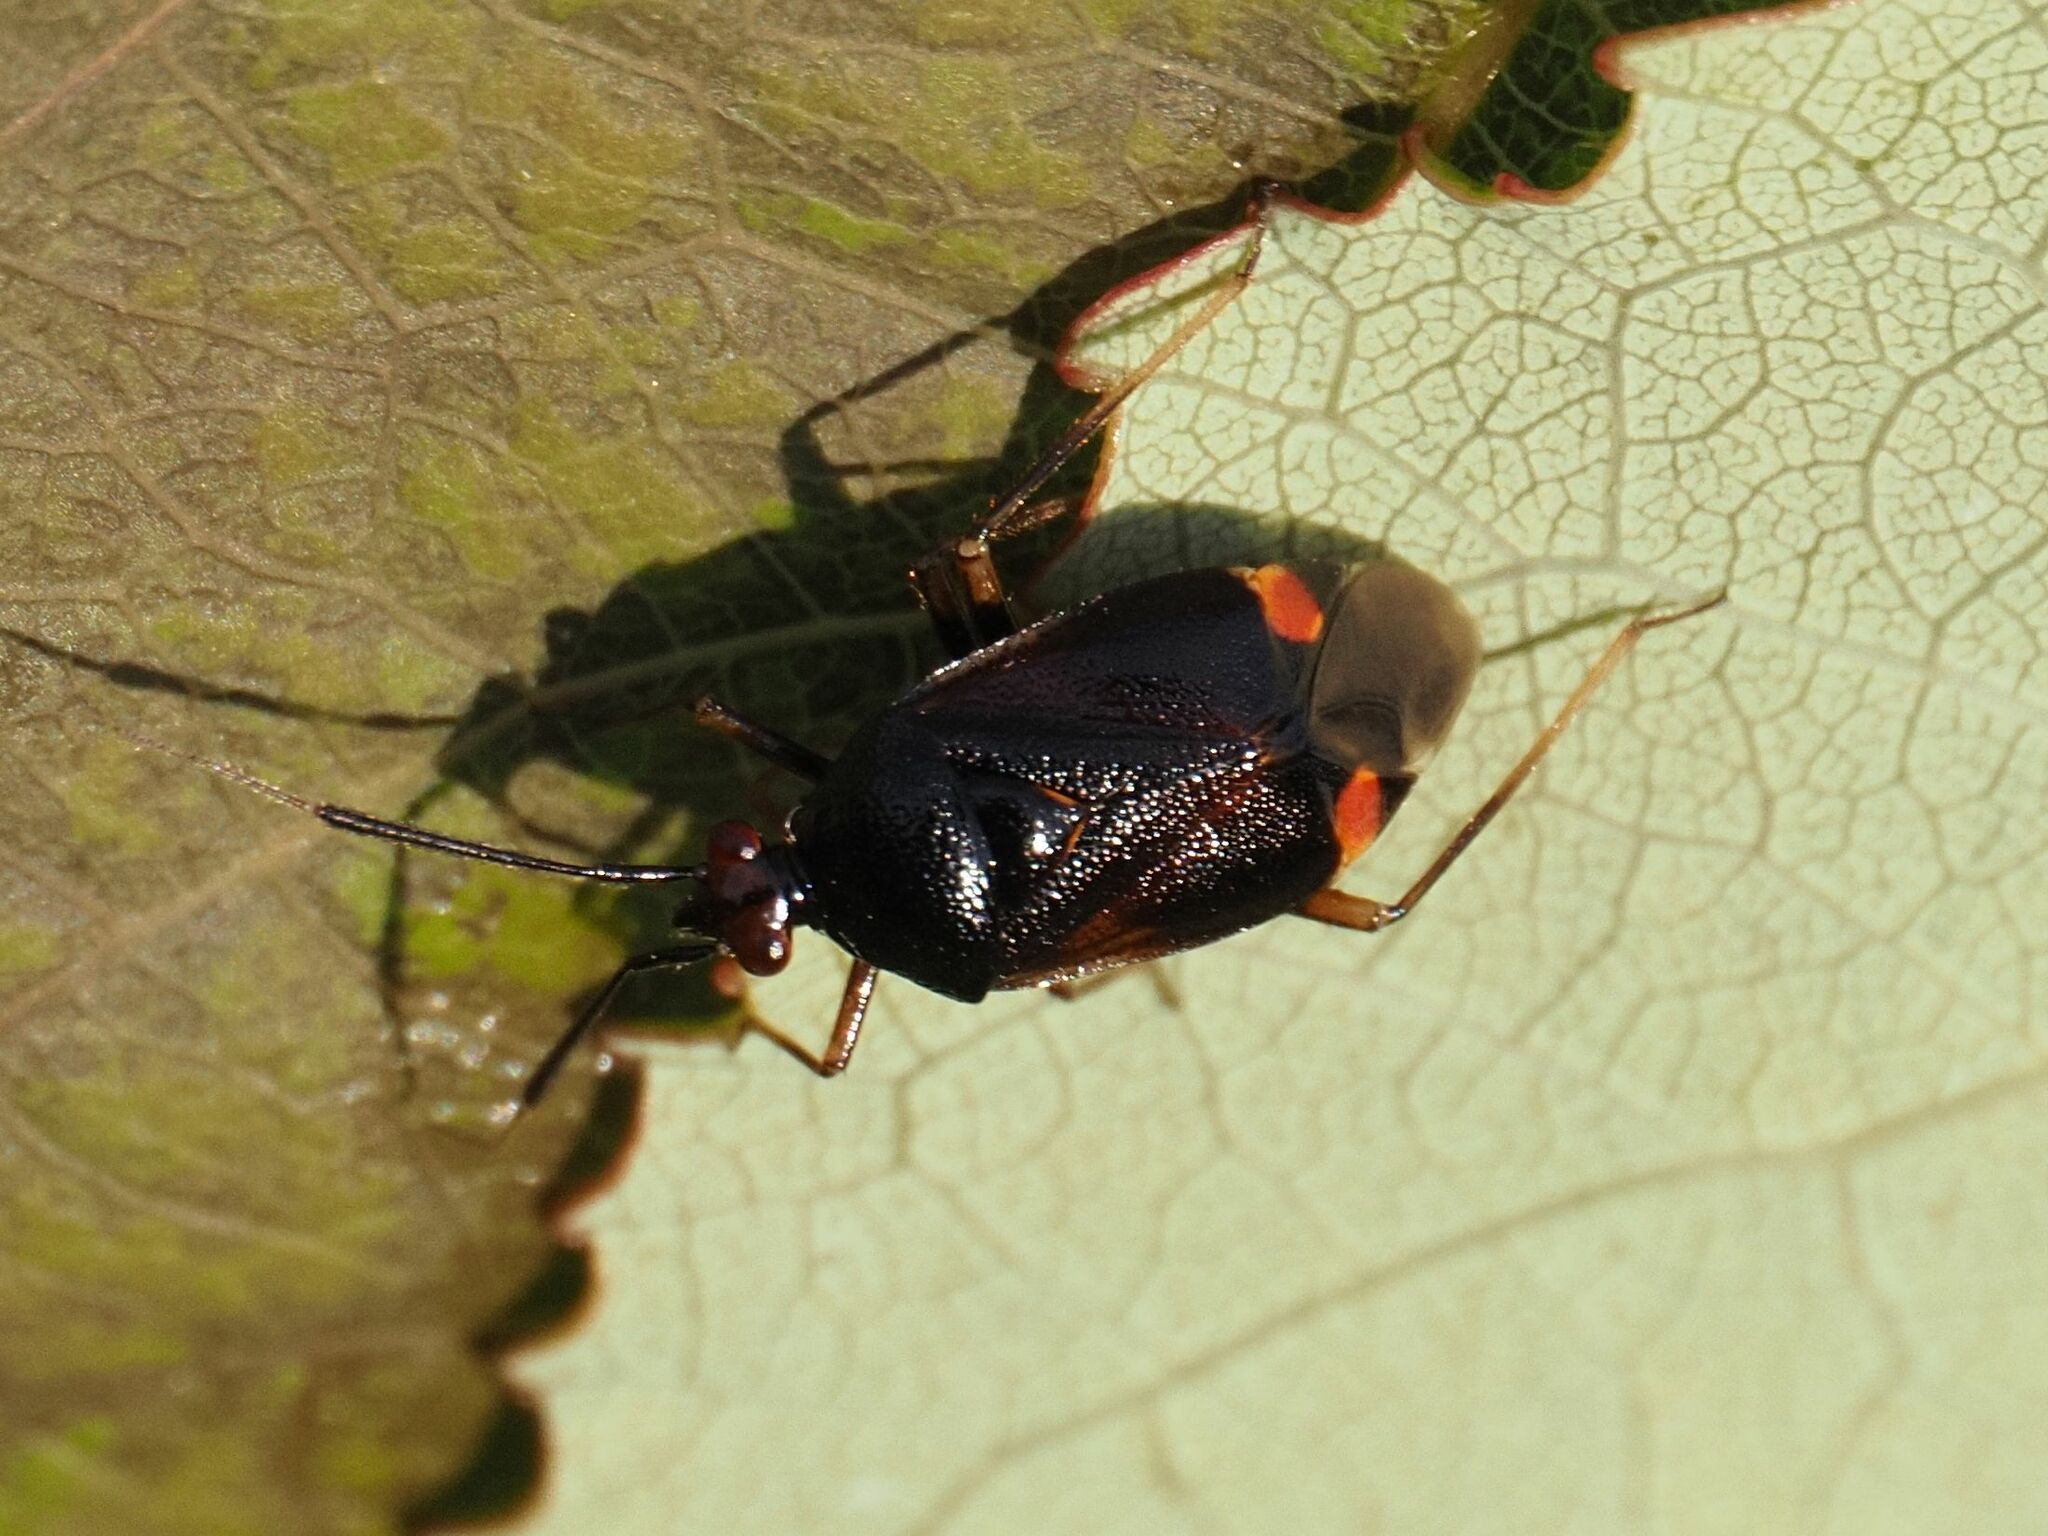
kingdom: Animalia
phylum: Arthropoda
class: Insecta
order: Hemiptera
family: Miridae
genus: Deraeocoris
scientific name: Deraeocoris ruber
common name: Plant bug
